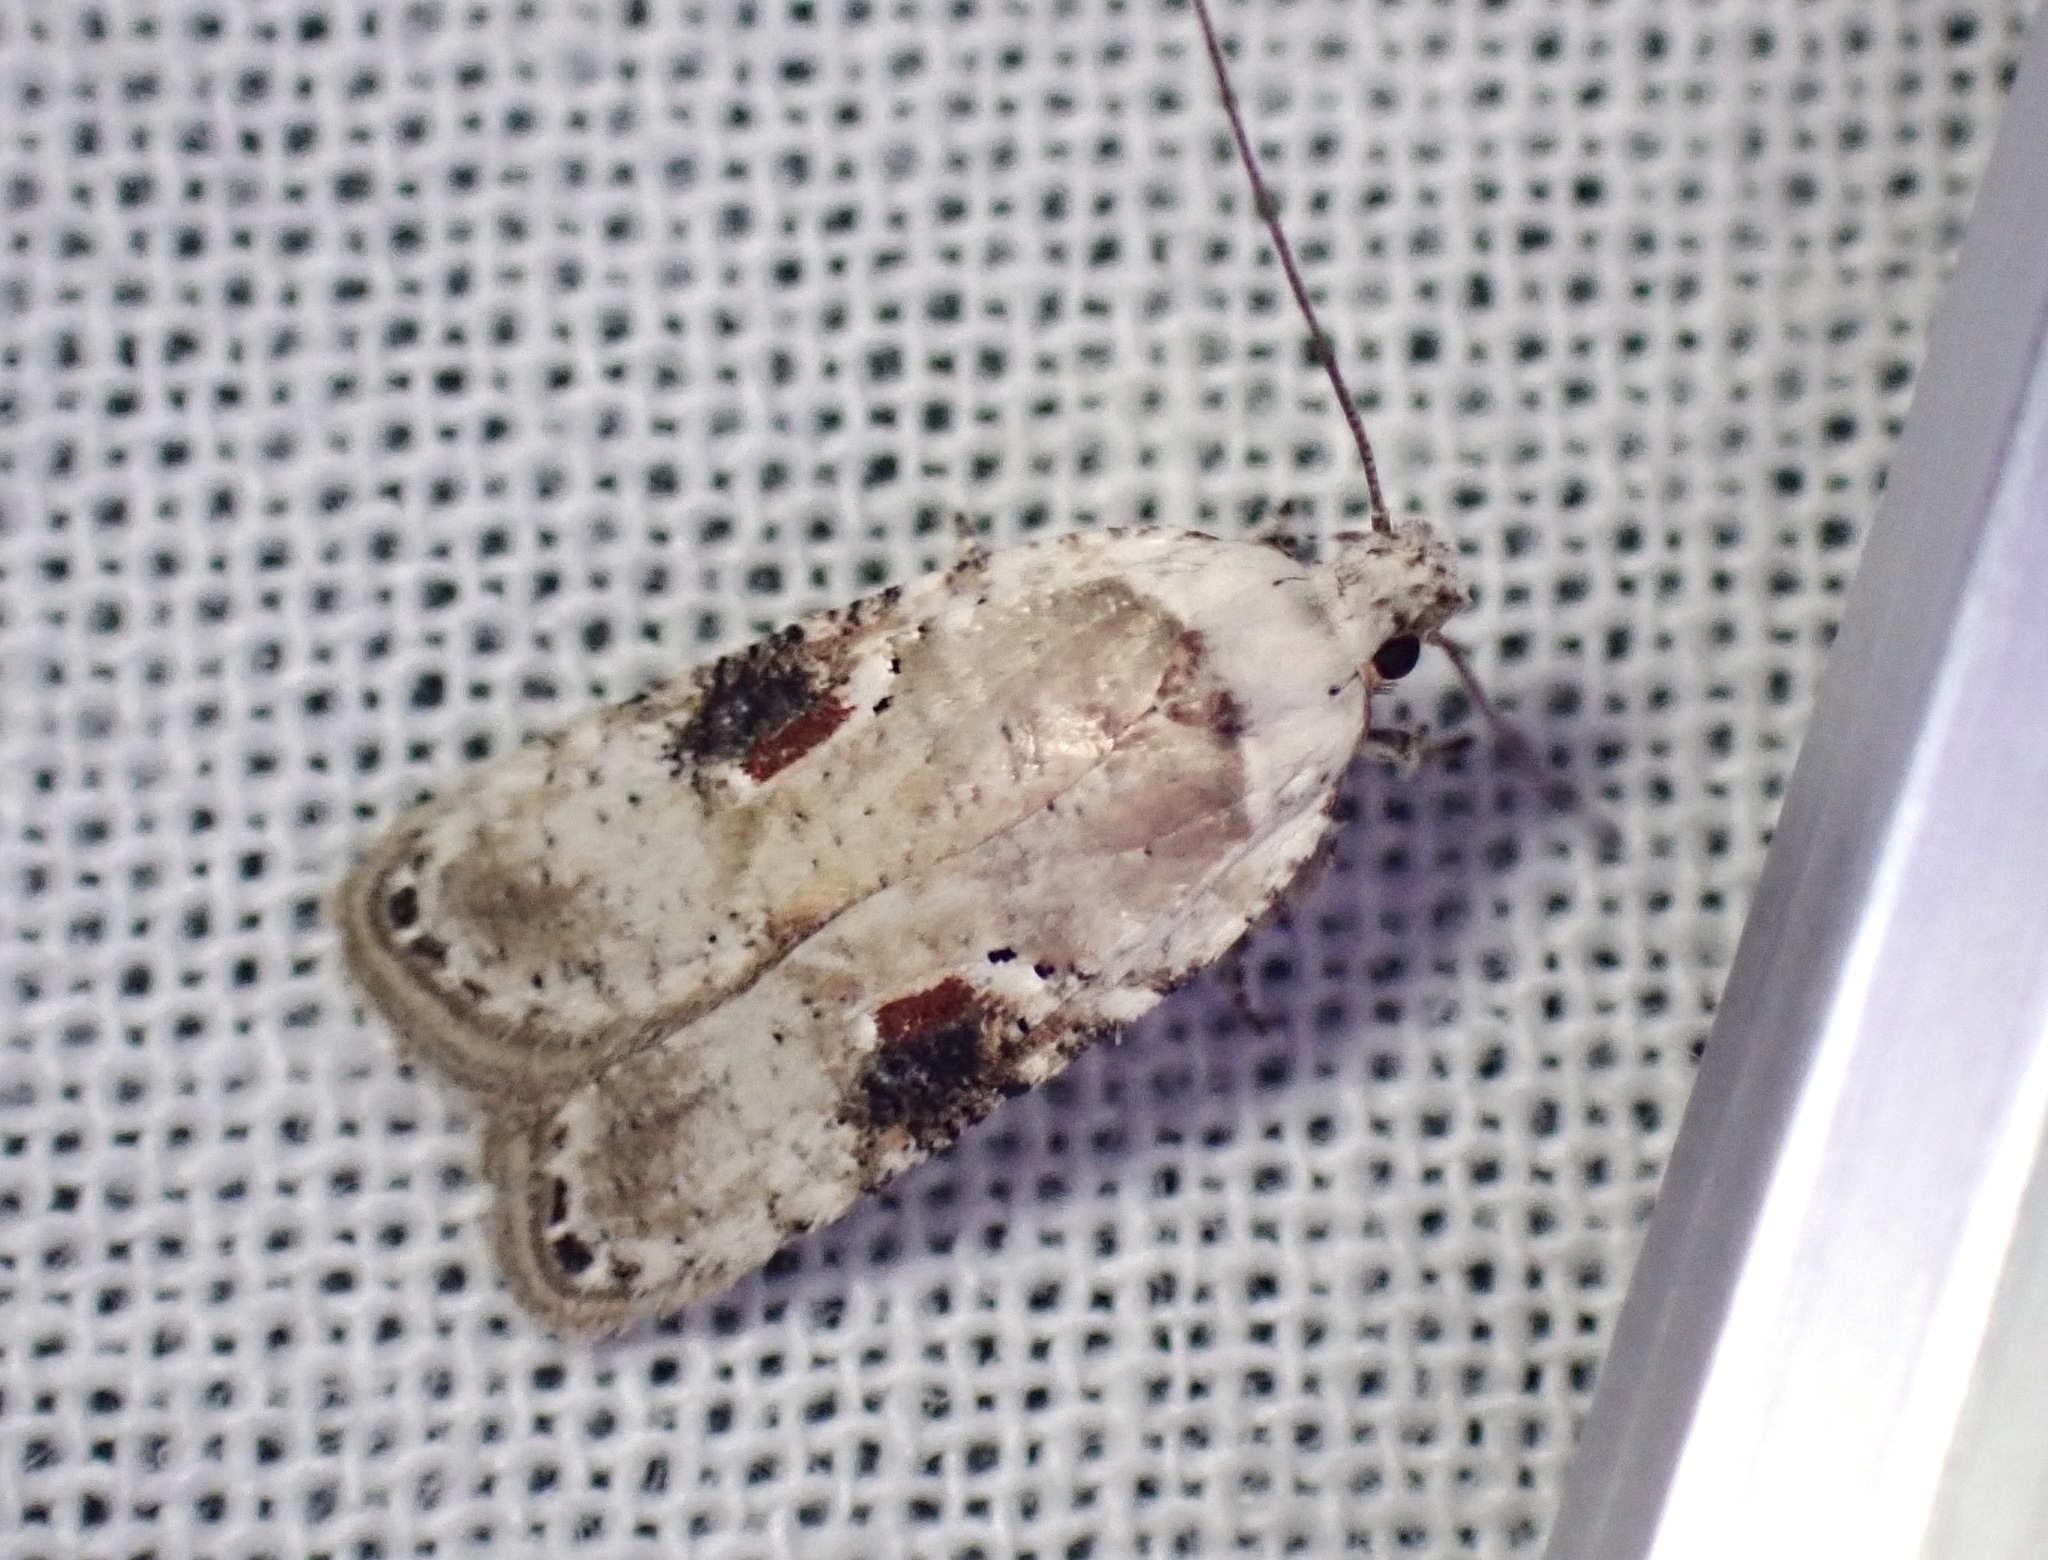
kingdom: Animalia
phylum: Arthropoda
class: Insecta
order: Lepidoptera
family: Depressariidae
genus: Agonopterix
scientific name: Agonopterix alstroemeriana
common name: Moth
